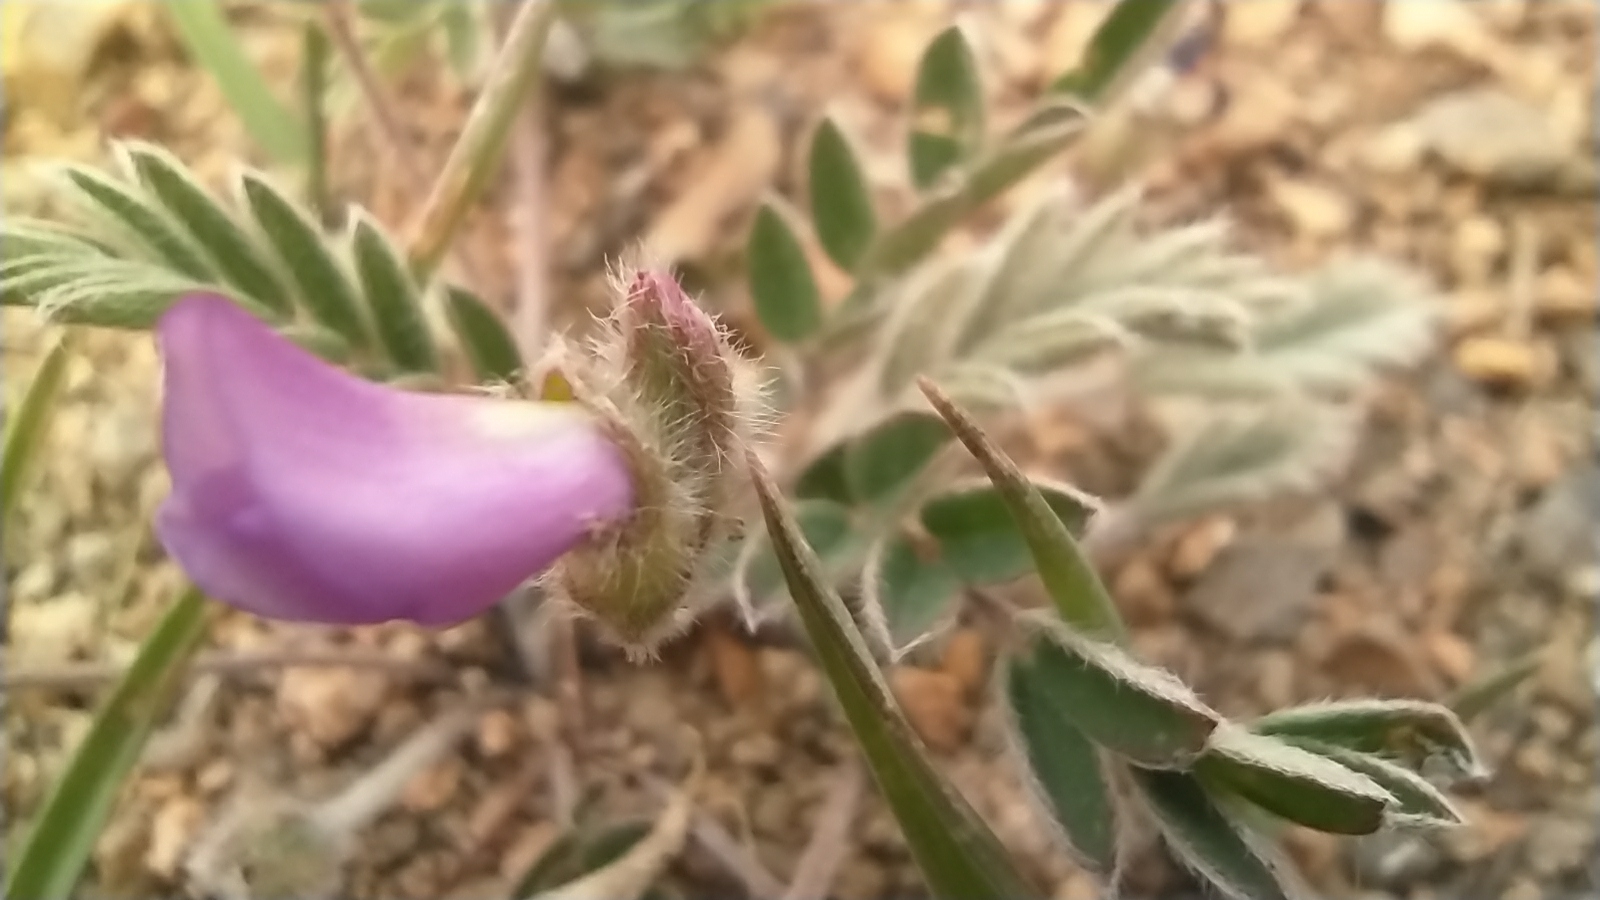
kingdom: Plantae
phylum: Tracheophyta
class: Magnoliopsida
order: Fabales
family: Fabaceae
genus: Gueldenstaedtia
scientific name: Gueldenstaedtia verna
